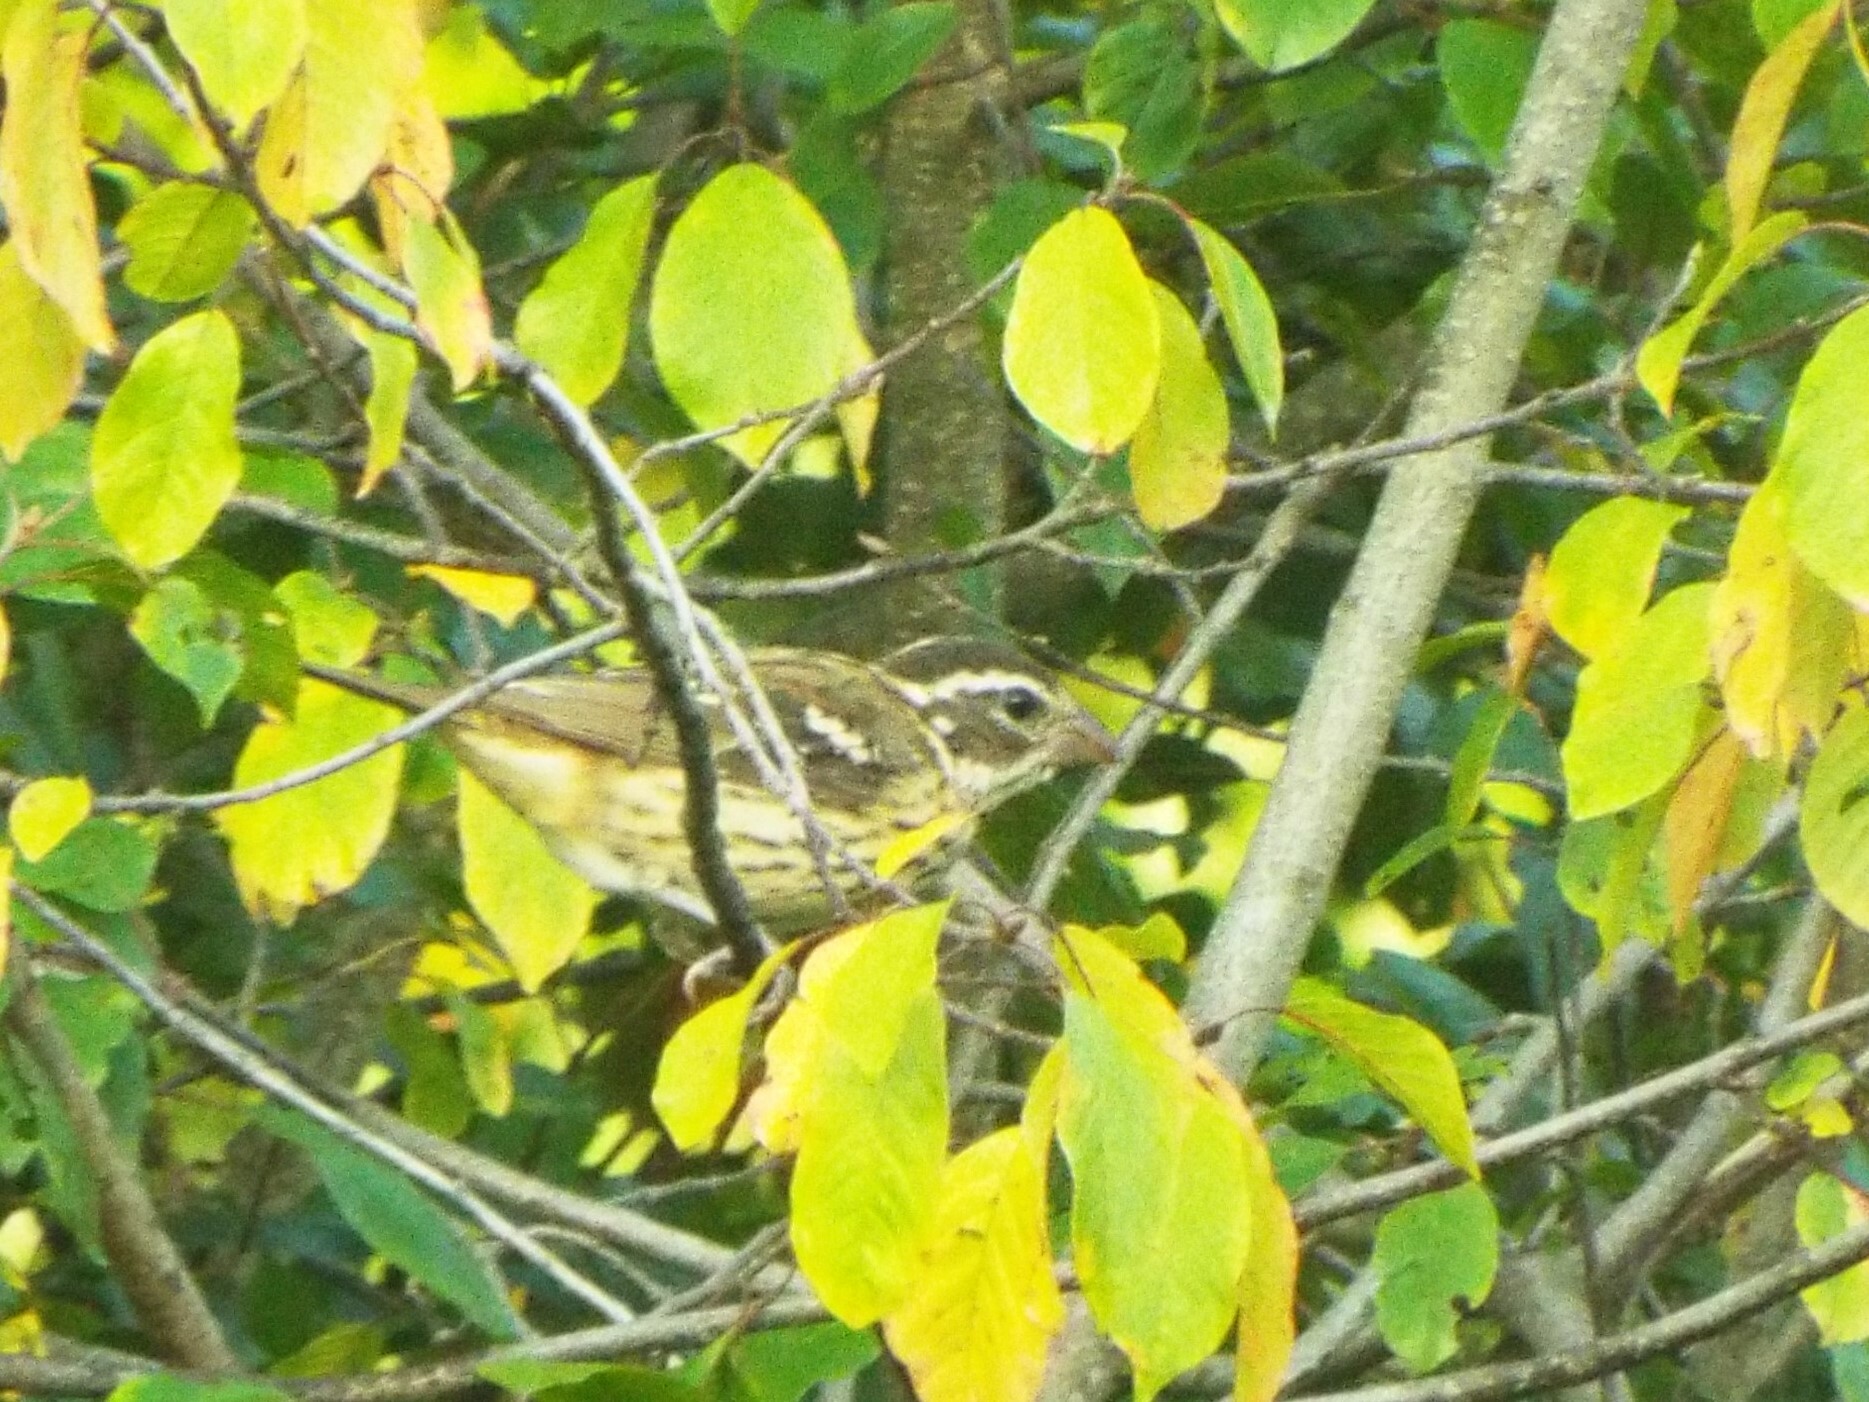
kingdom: Animalia
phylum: Chordata
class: Aves
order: Passeriformes
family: Cardinalidae
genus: Pheucticus
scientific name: Pheucticus ludovicianus
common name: Rose-breasted grosbeak
